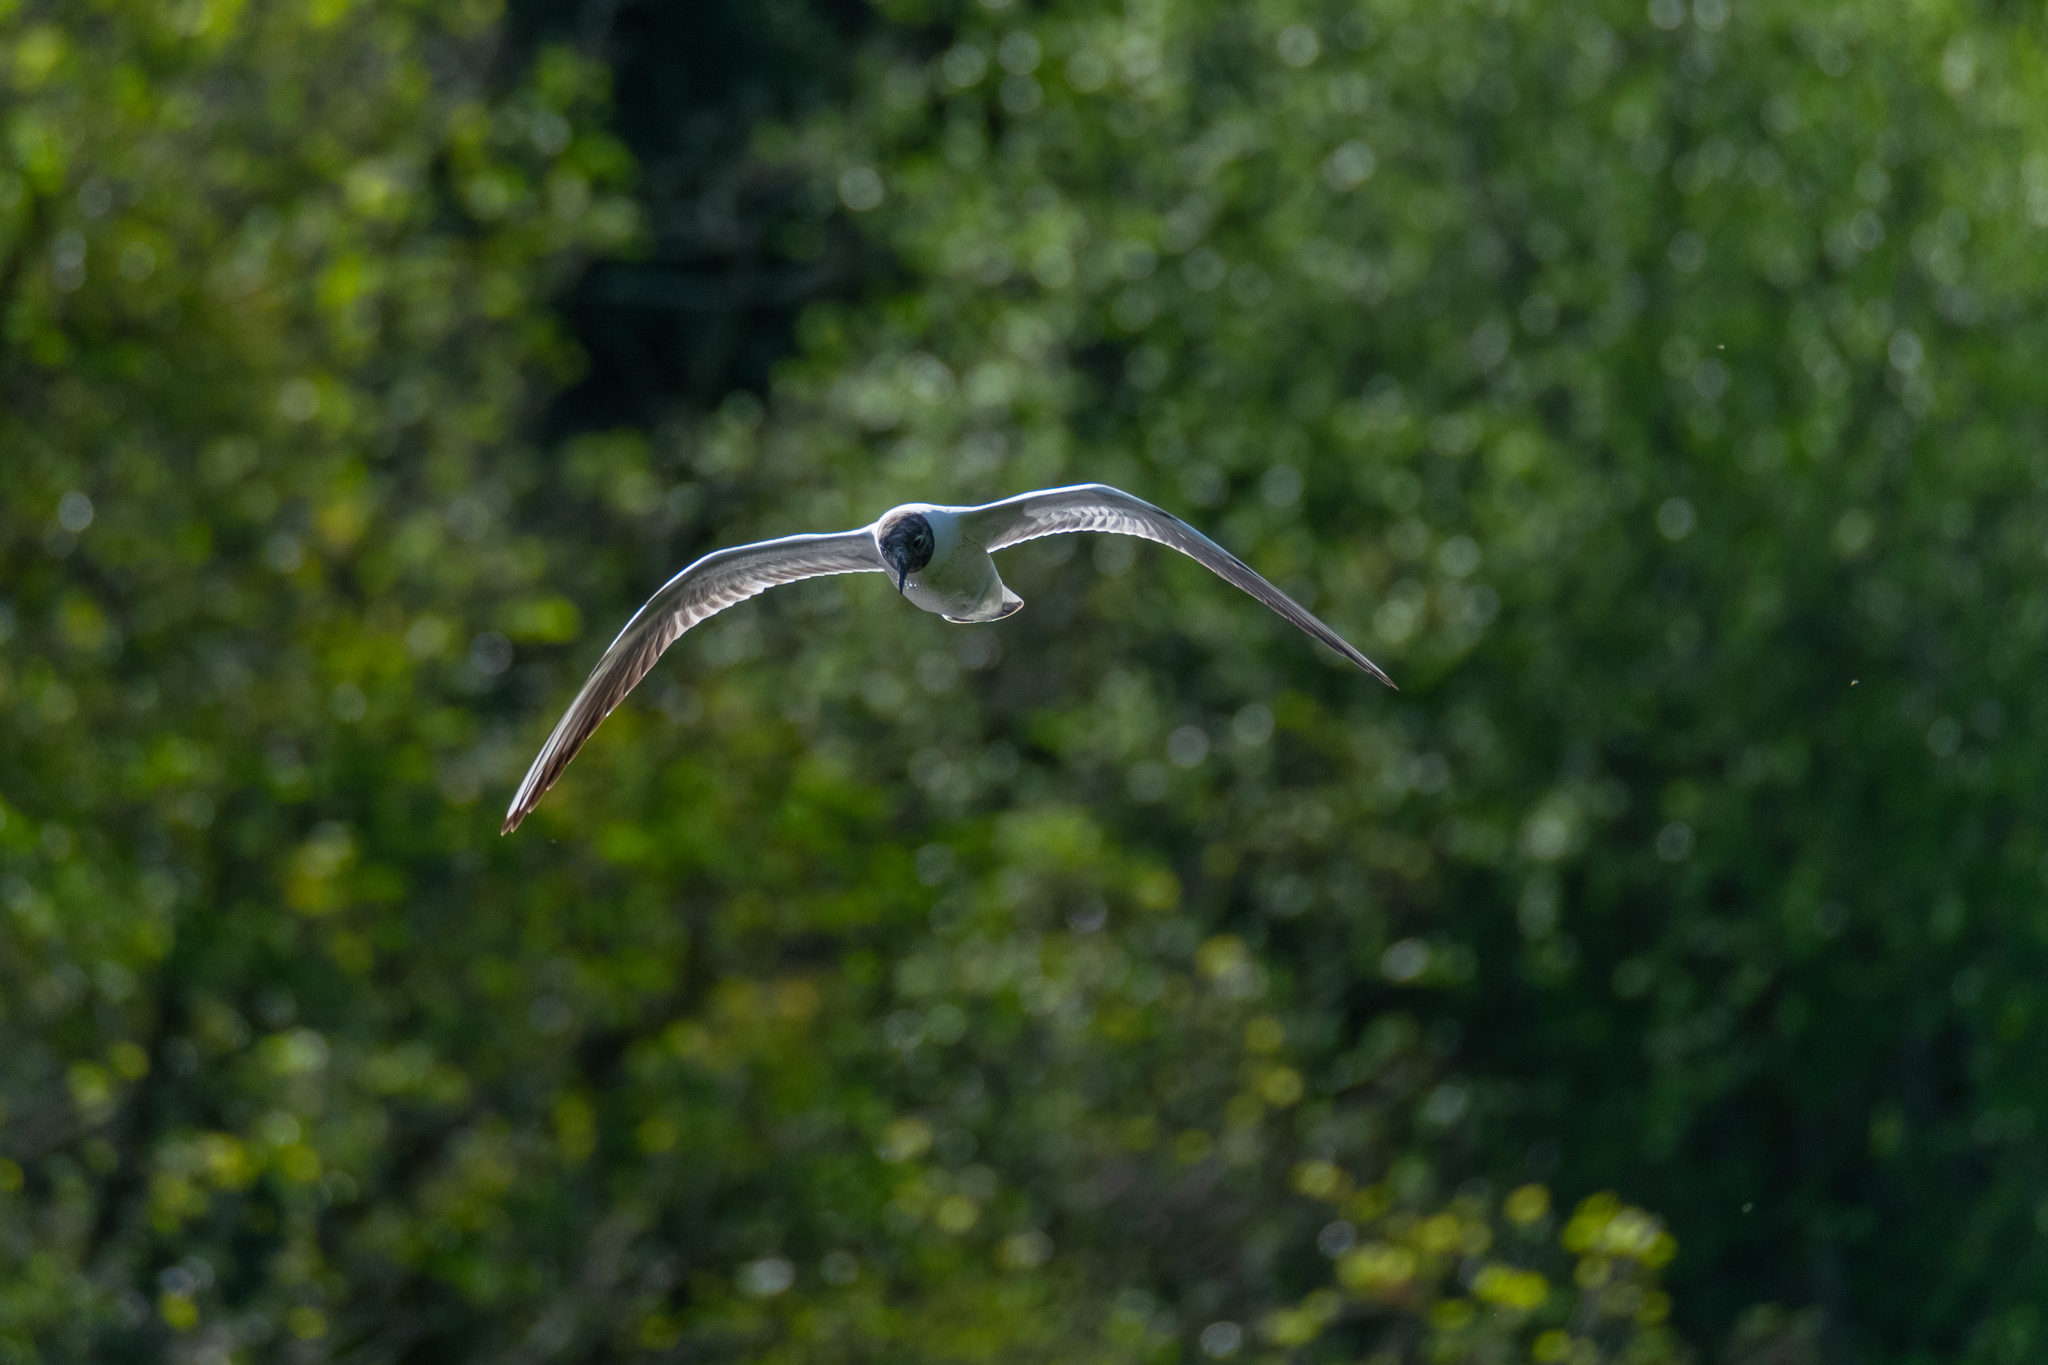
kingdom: Animalia
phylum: Chordata
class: Aves
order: Charadriiformes
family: Laridae
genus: Chroicocephalus
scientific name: Chroicocephalus ridibundus
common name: Black-headed gull
